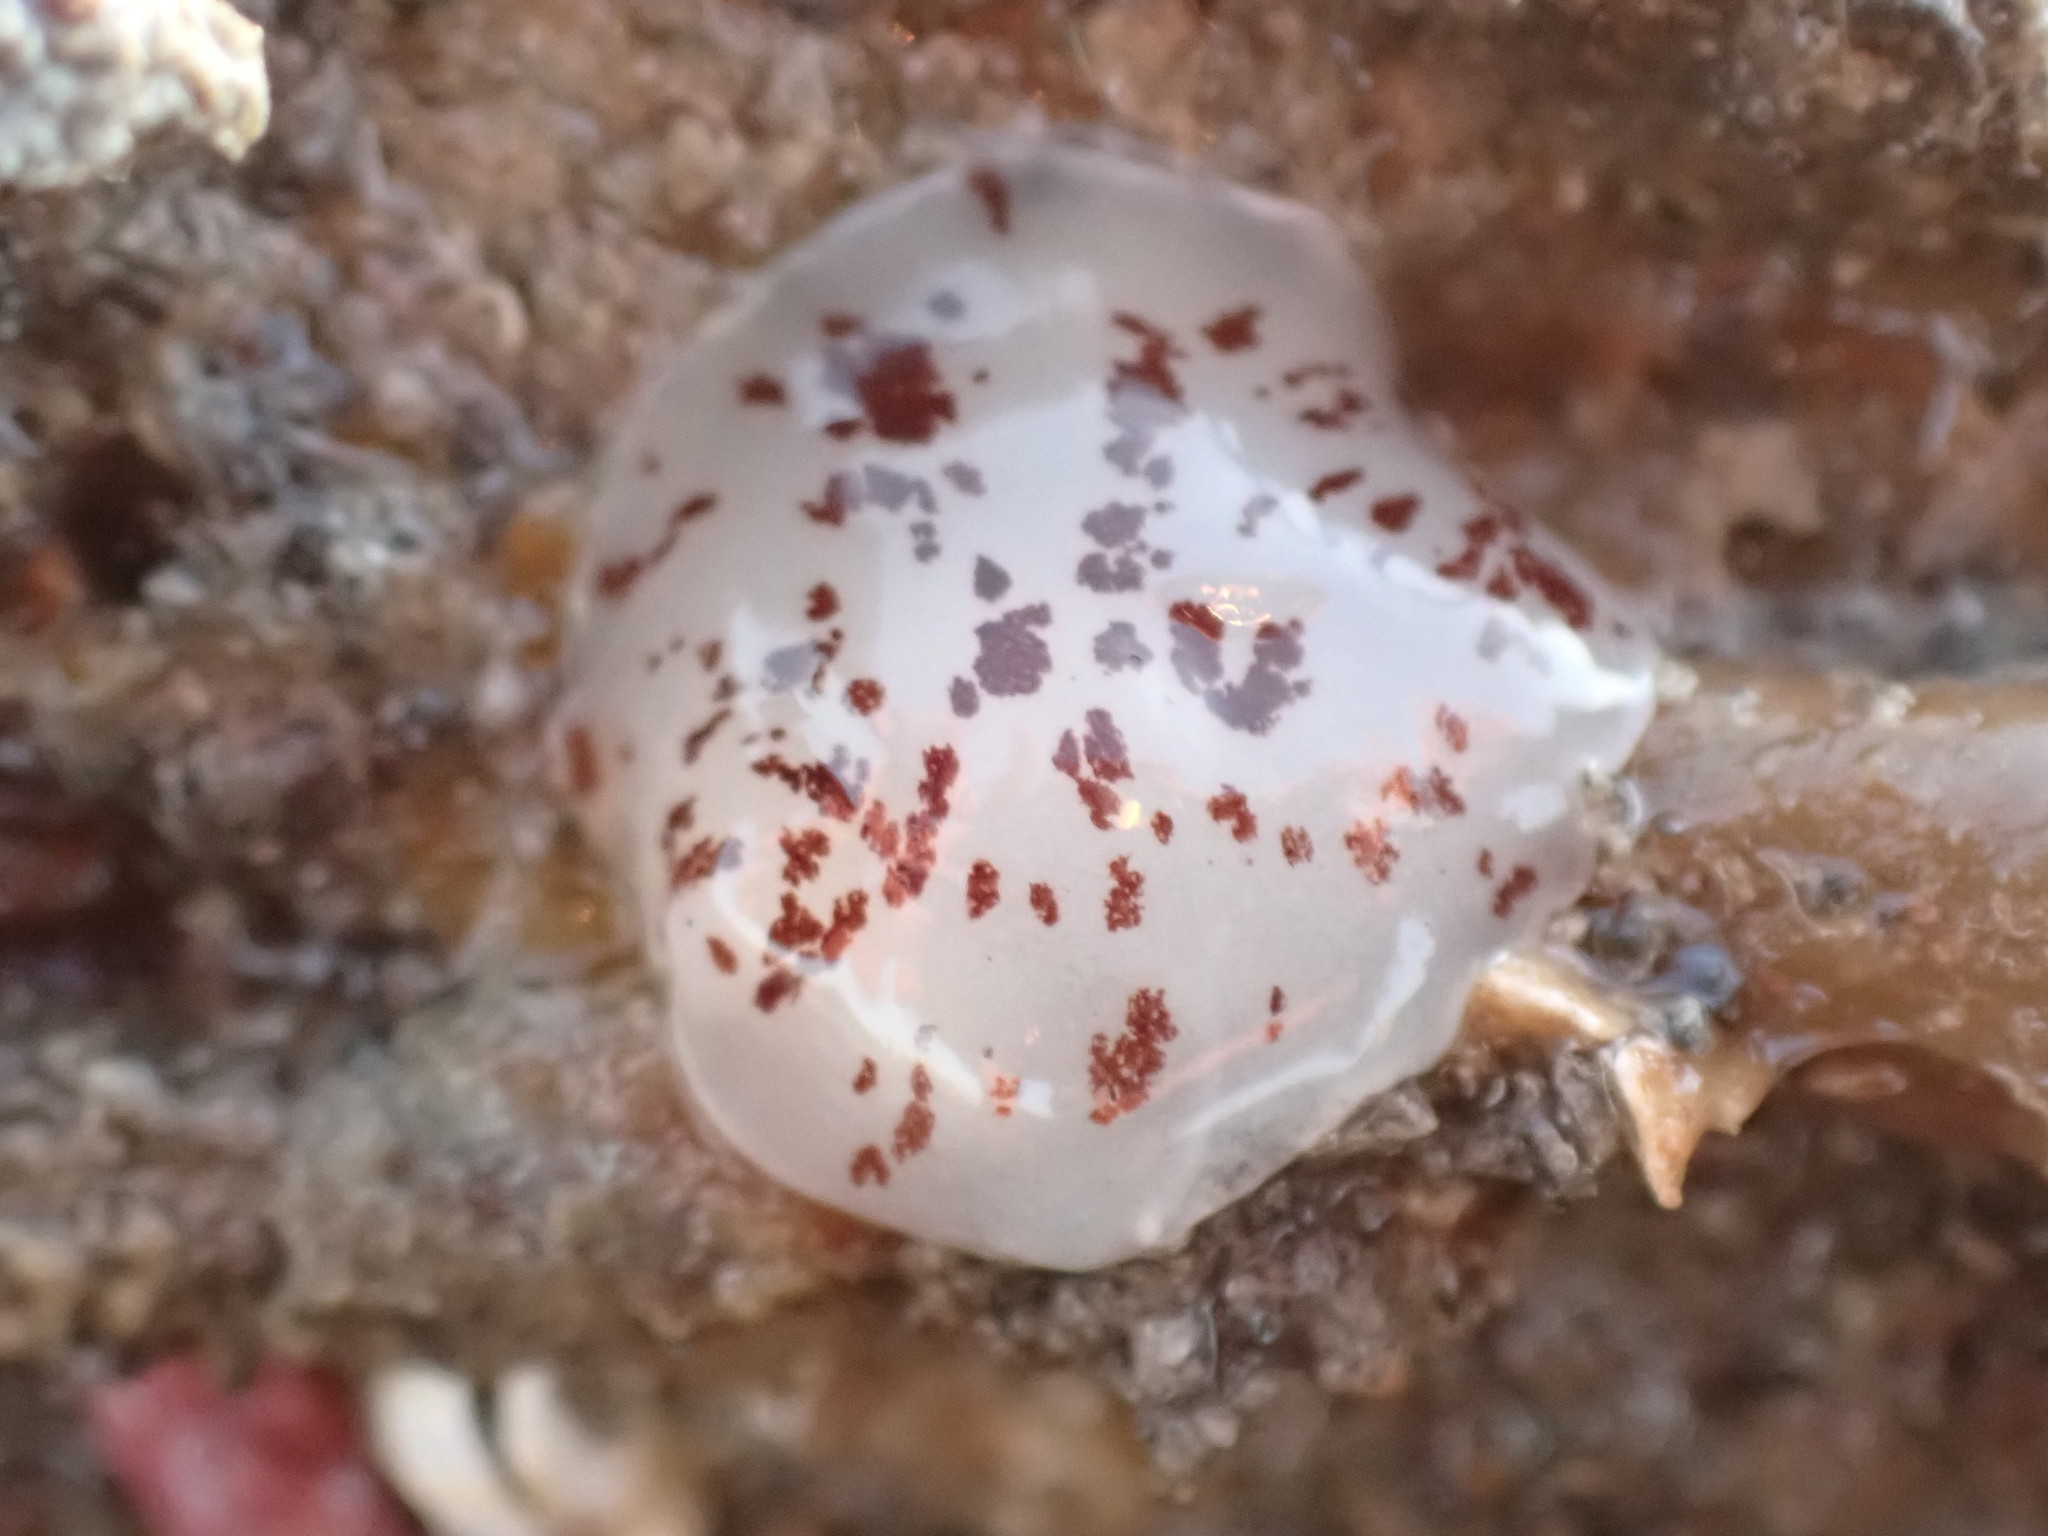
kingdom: Animalia
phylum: Mollusca
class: Gastropoda
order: Pleurobranchida
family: Pleurobranchidae
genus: Berthella
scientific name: Berthella ornata
